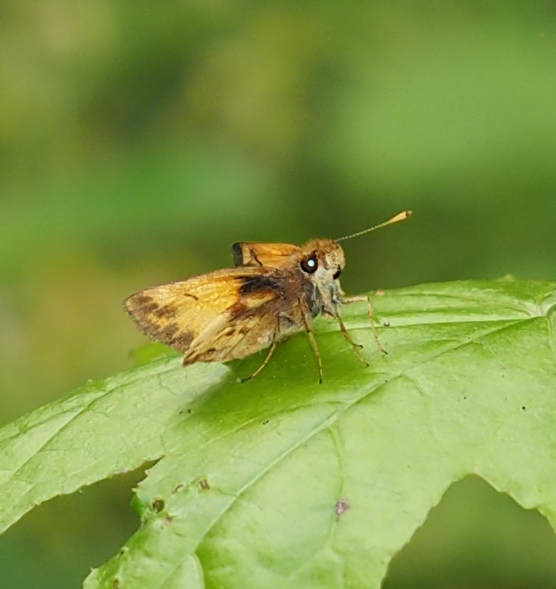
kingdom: Animalia
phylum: Arthropoda
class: Insecta
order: Lepidoptera
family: Hesperiidae
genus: Lon
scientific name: Lon zabulon
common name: Zabulon skipper
